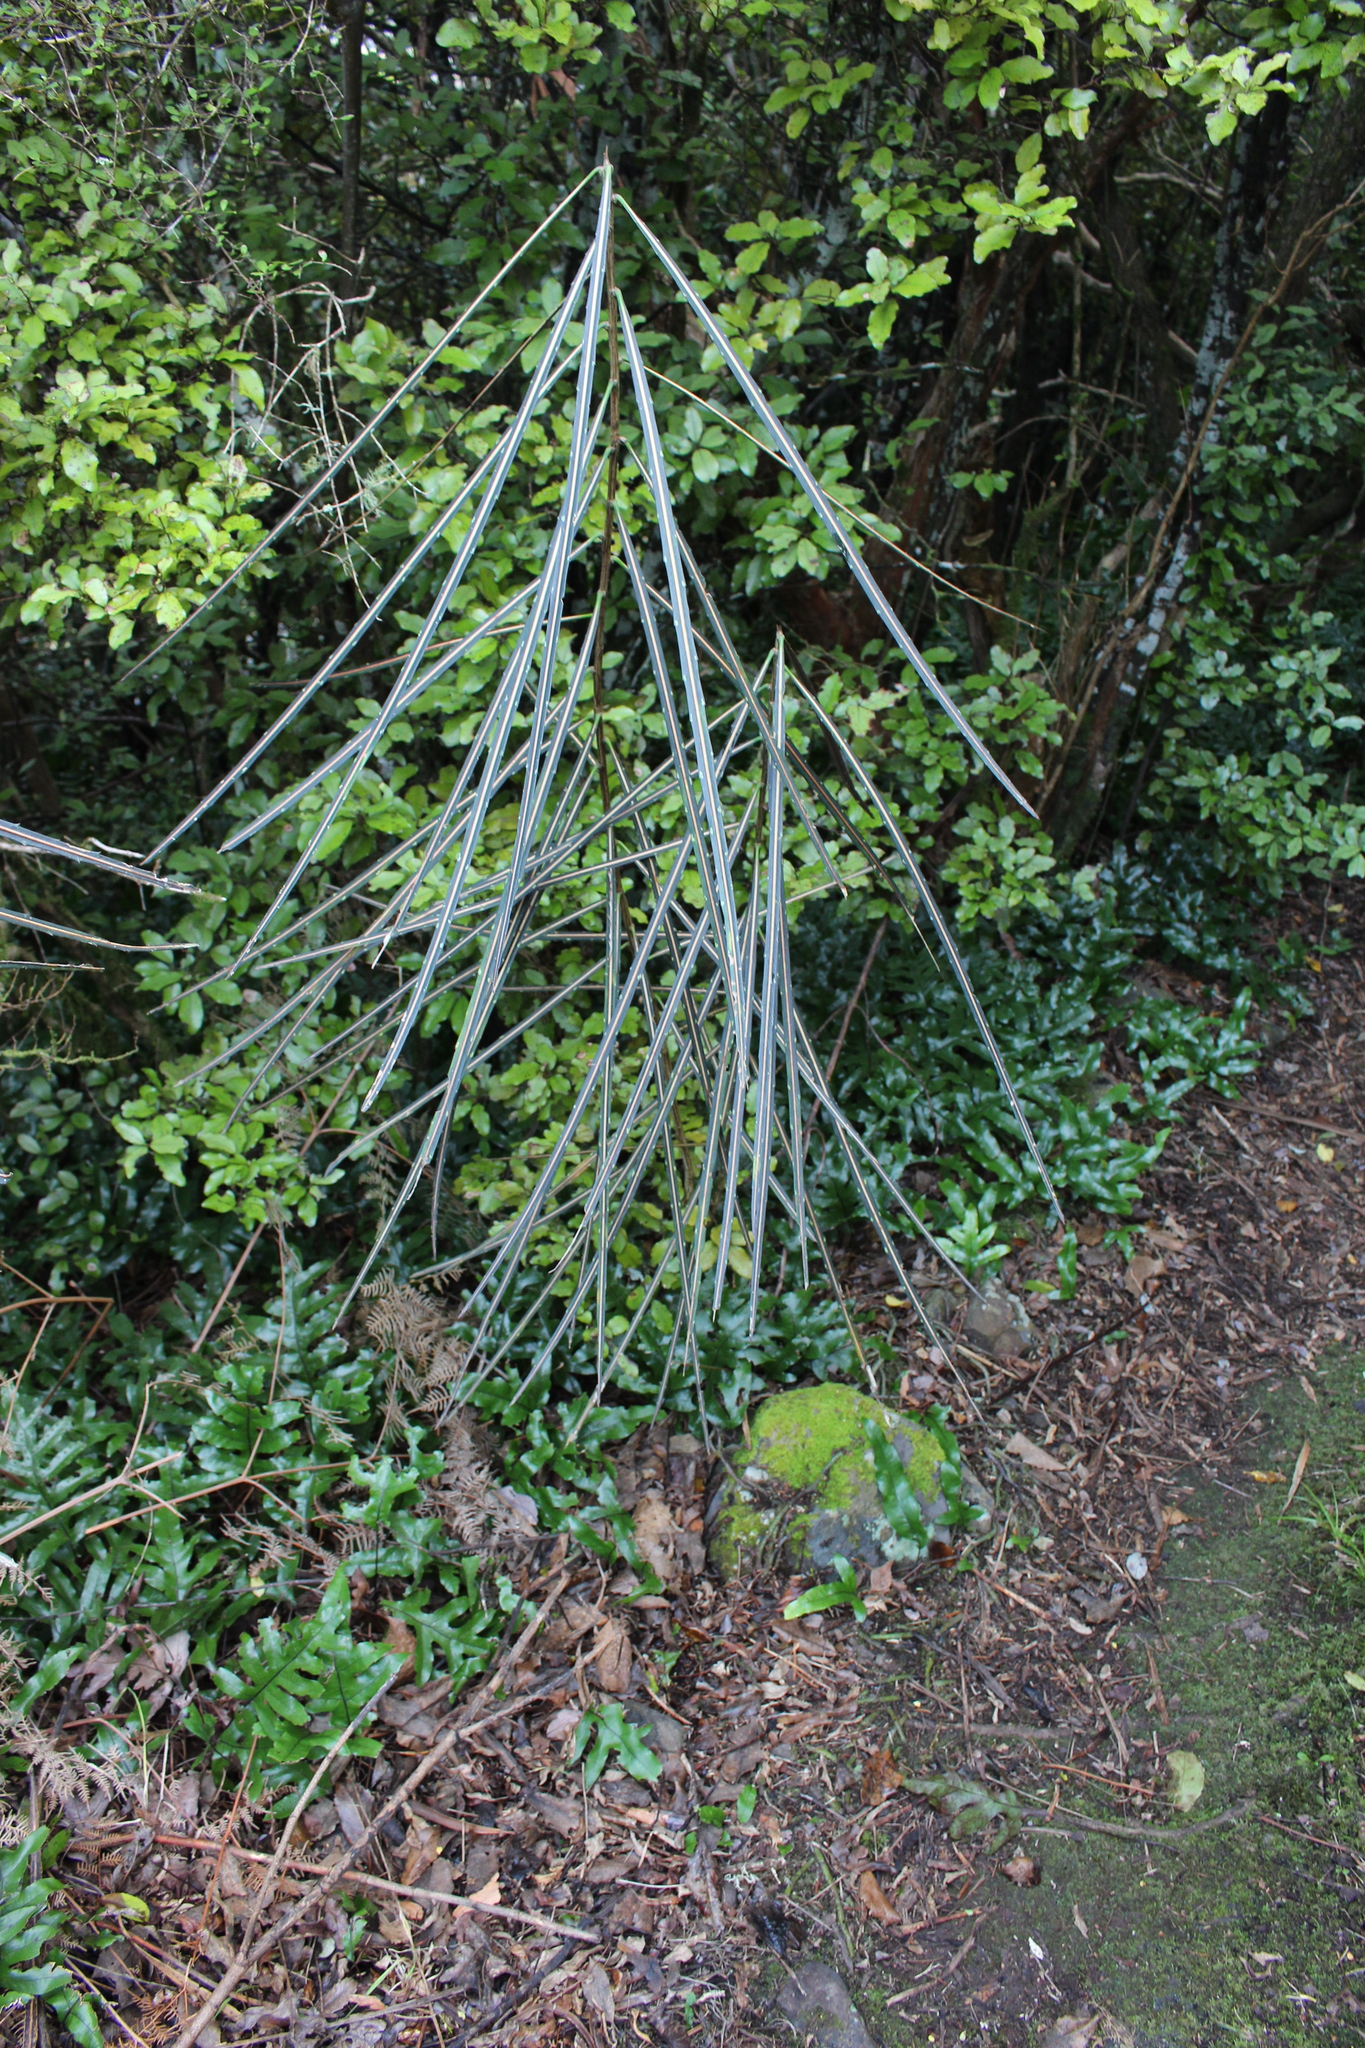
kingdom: Plantae
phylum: Tracheophyta
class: Magnoliopsida
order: Apiales
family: Araliaceae
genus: Pseudopanax
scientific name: Pseudopanax crassifolius
